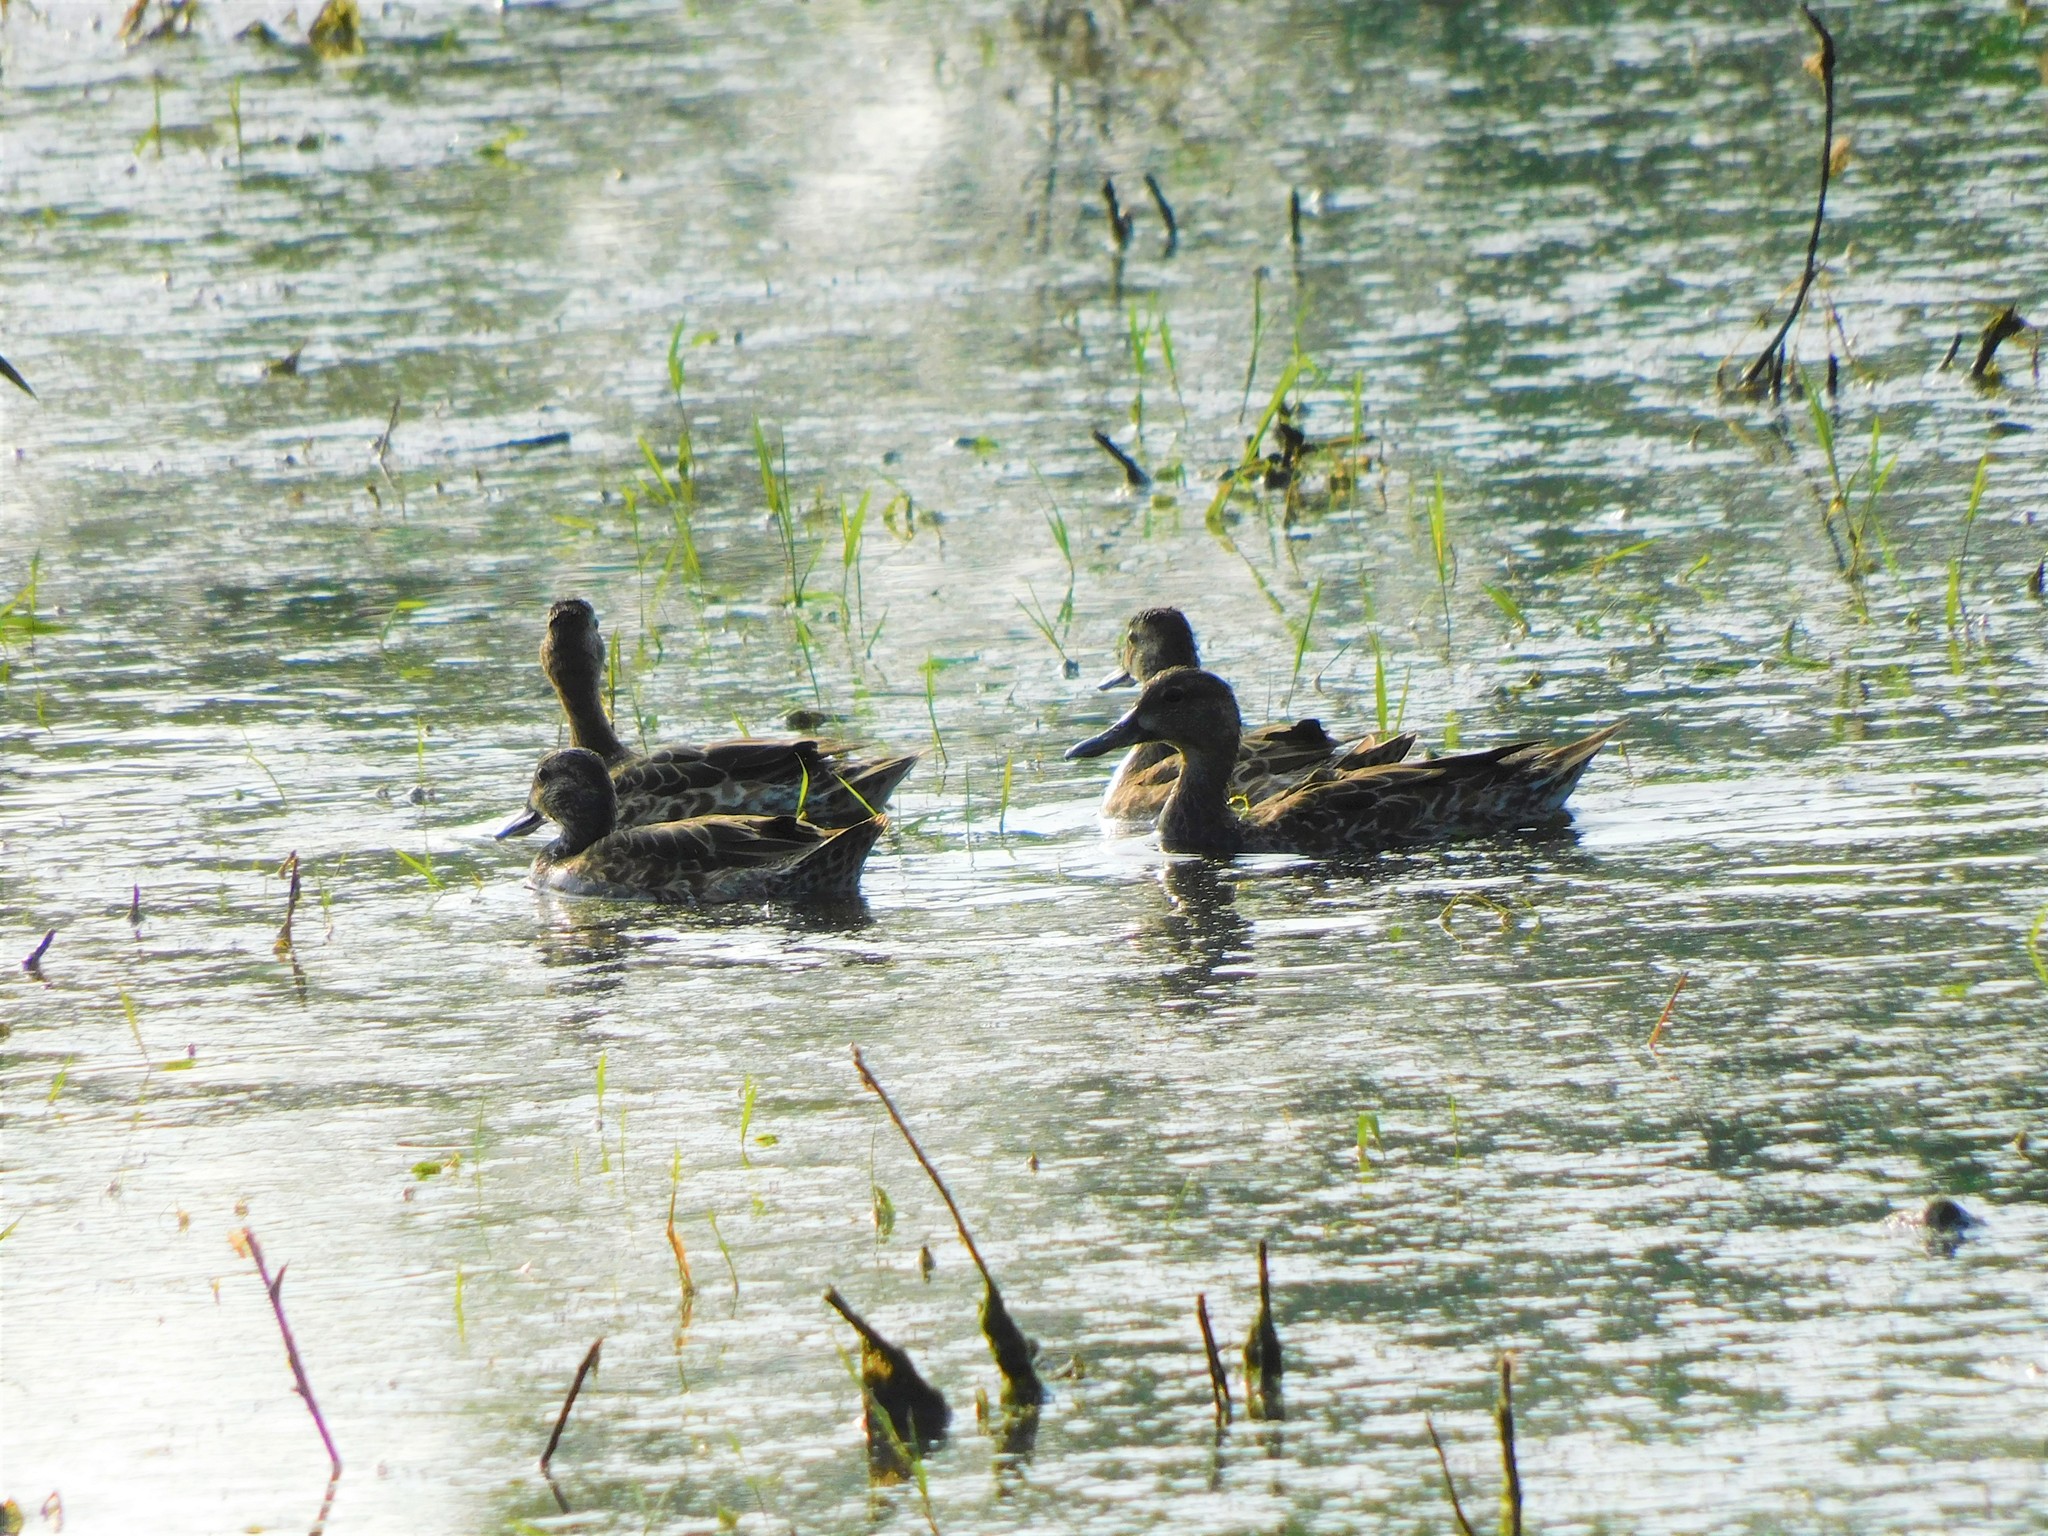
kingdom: Animalia
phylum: Chordata
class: Aves
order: Anseriformes
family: Anatidae
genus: Spatula
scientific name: Spatula discors
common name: Blue-winged teal
